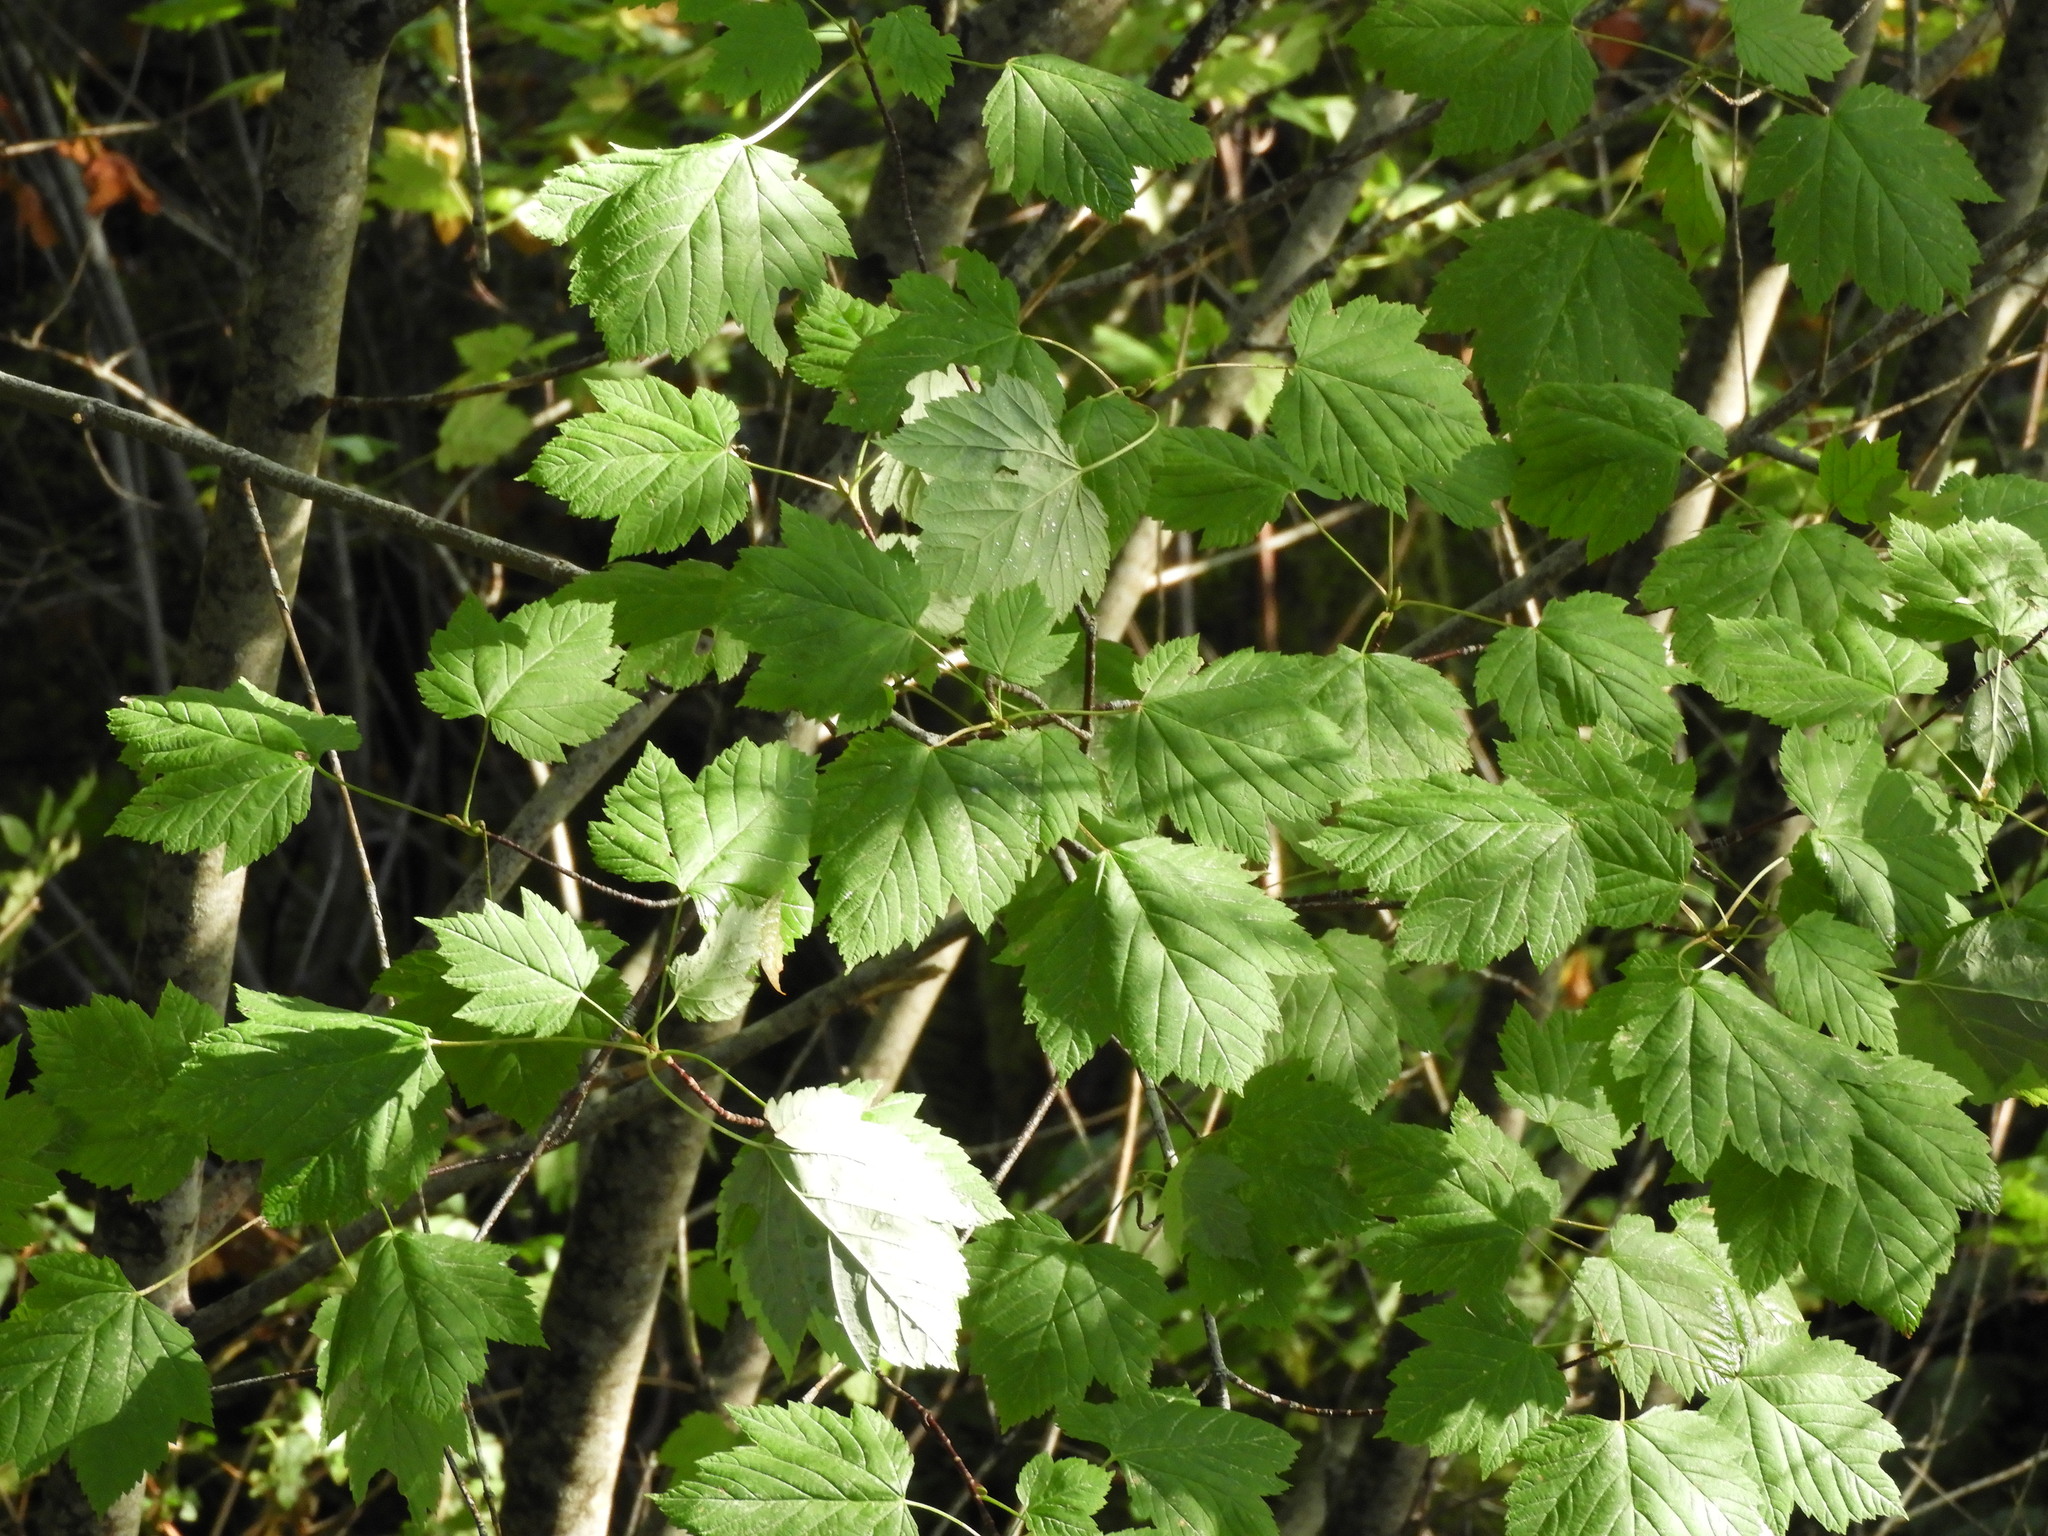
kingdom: Plantae
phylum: Tracheophyta
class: Magnoliopsida
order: Sapindales
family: Sapindaceae
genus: Acer
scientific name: Acer glabrum
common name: Rocky mountain maple
